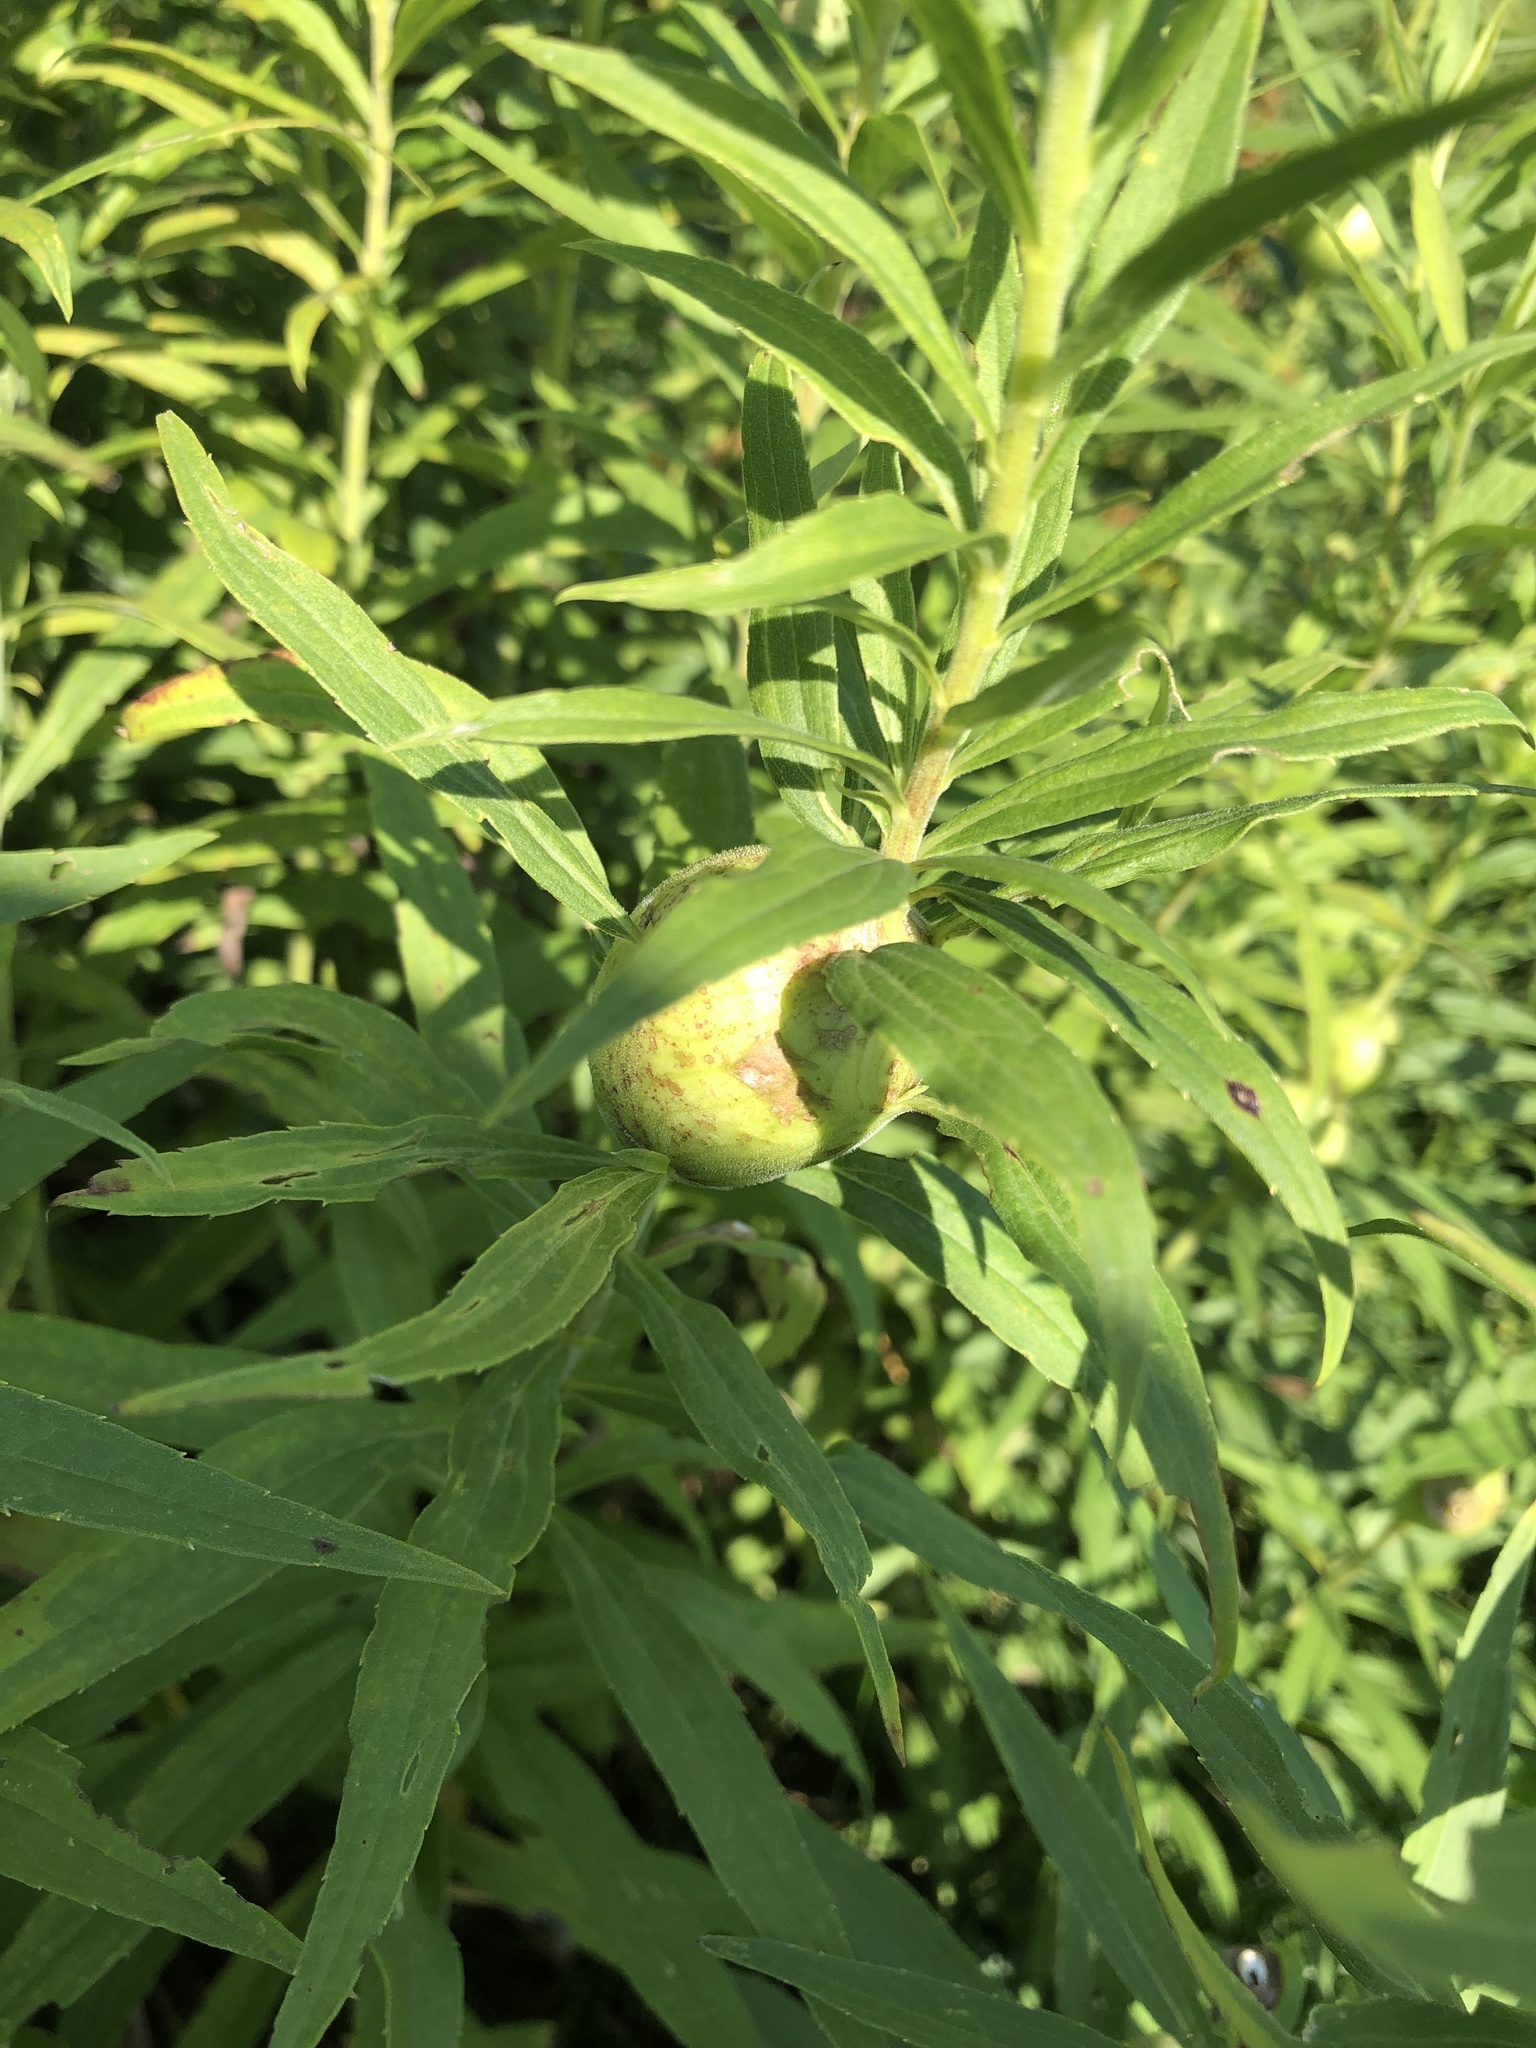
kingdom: Animalia
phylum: Arthropoda
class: Insecta
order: Diptera
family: Tephritidae
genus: Eurosta
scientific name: Eurosta solidaginis
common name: Goldenrod gall fly
